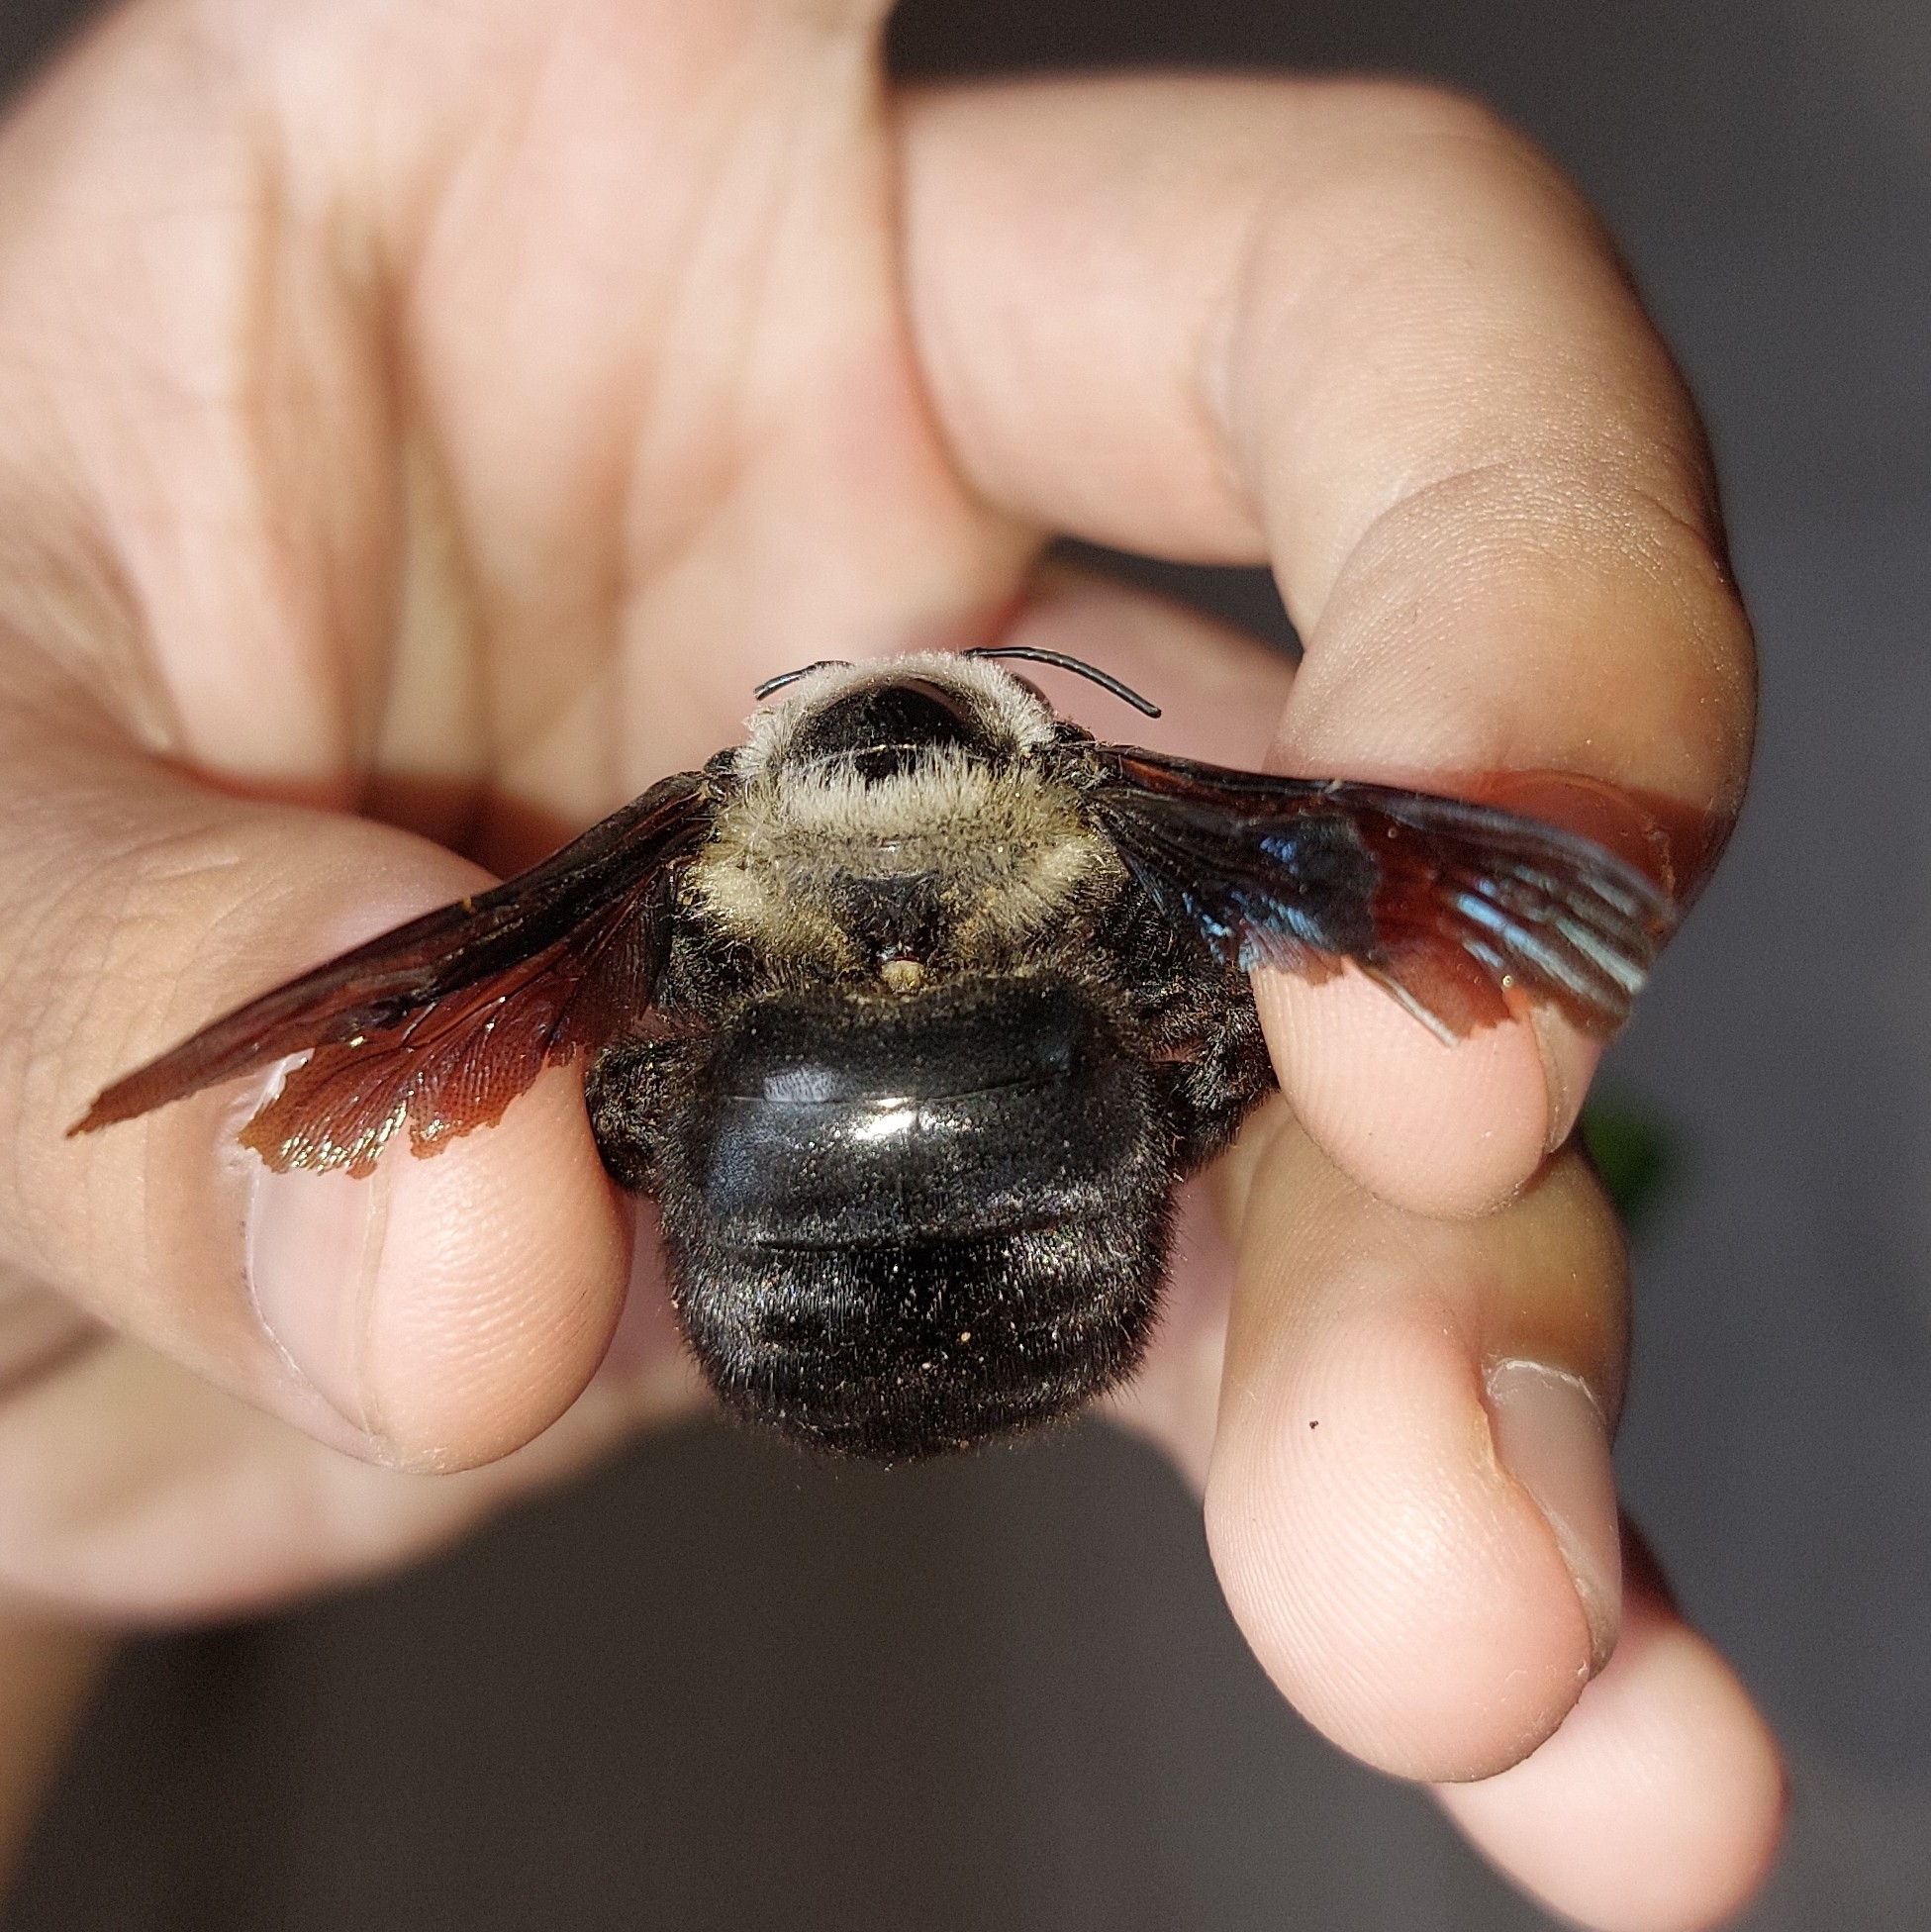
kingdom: Animalia
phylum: Arthropoda
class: Insecta
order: Hymenoptera
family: Apidae
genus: Xylocopa
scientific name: Xylocopa grisescens
